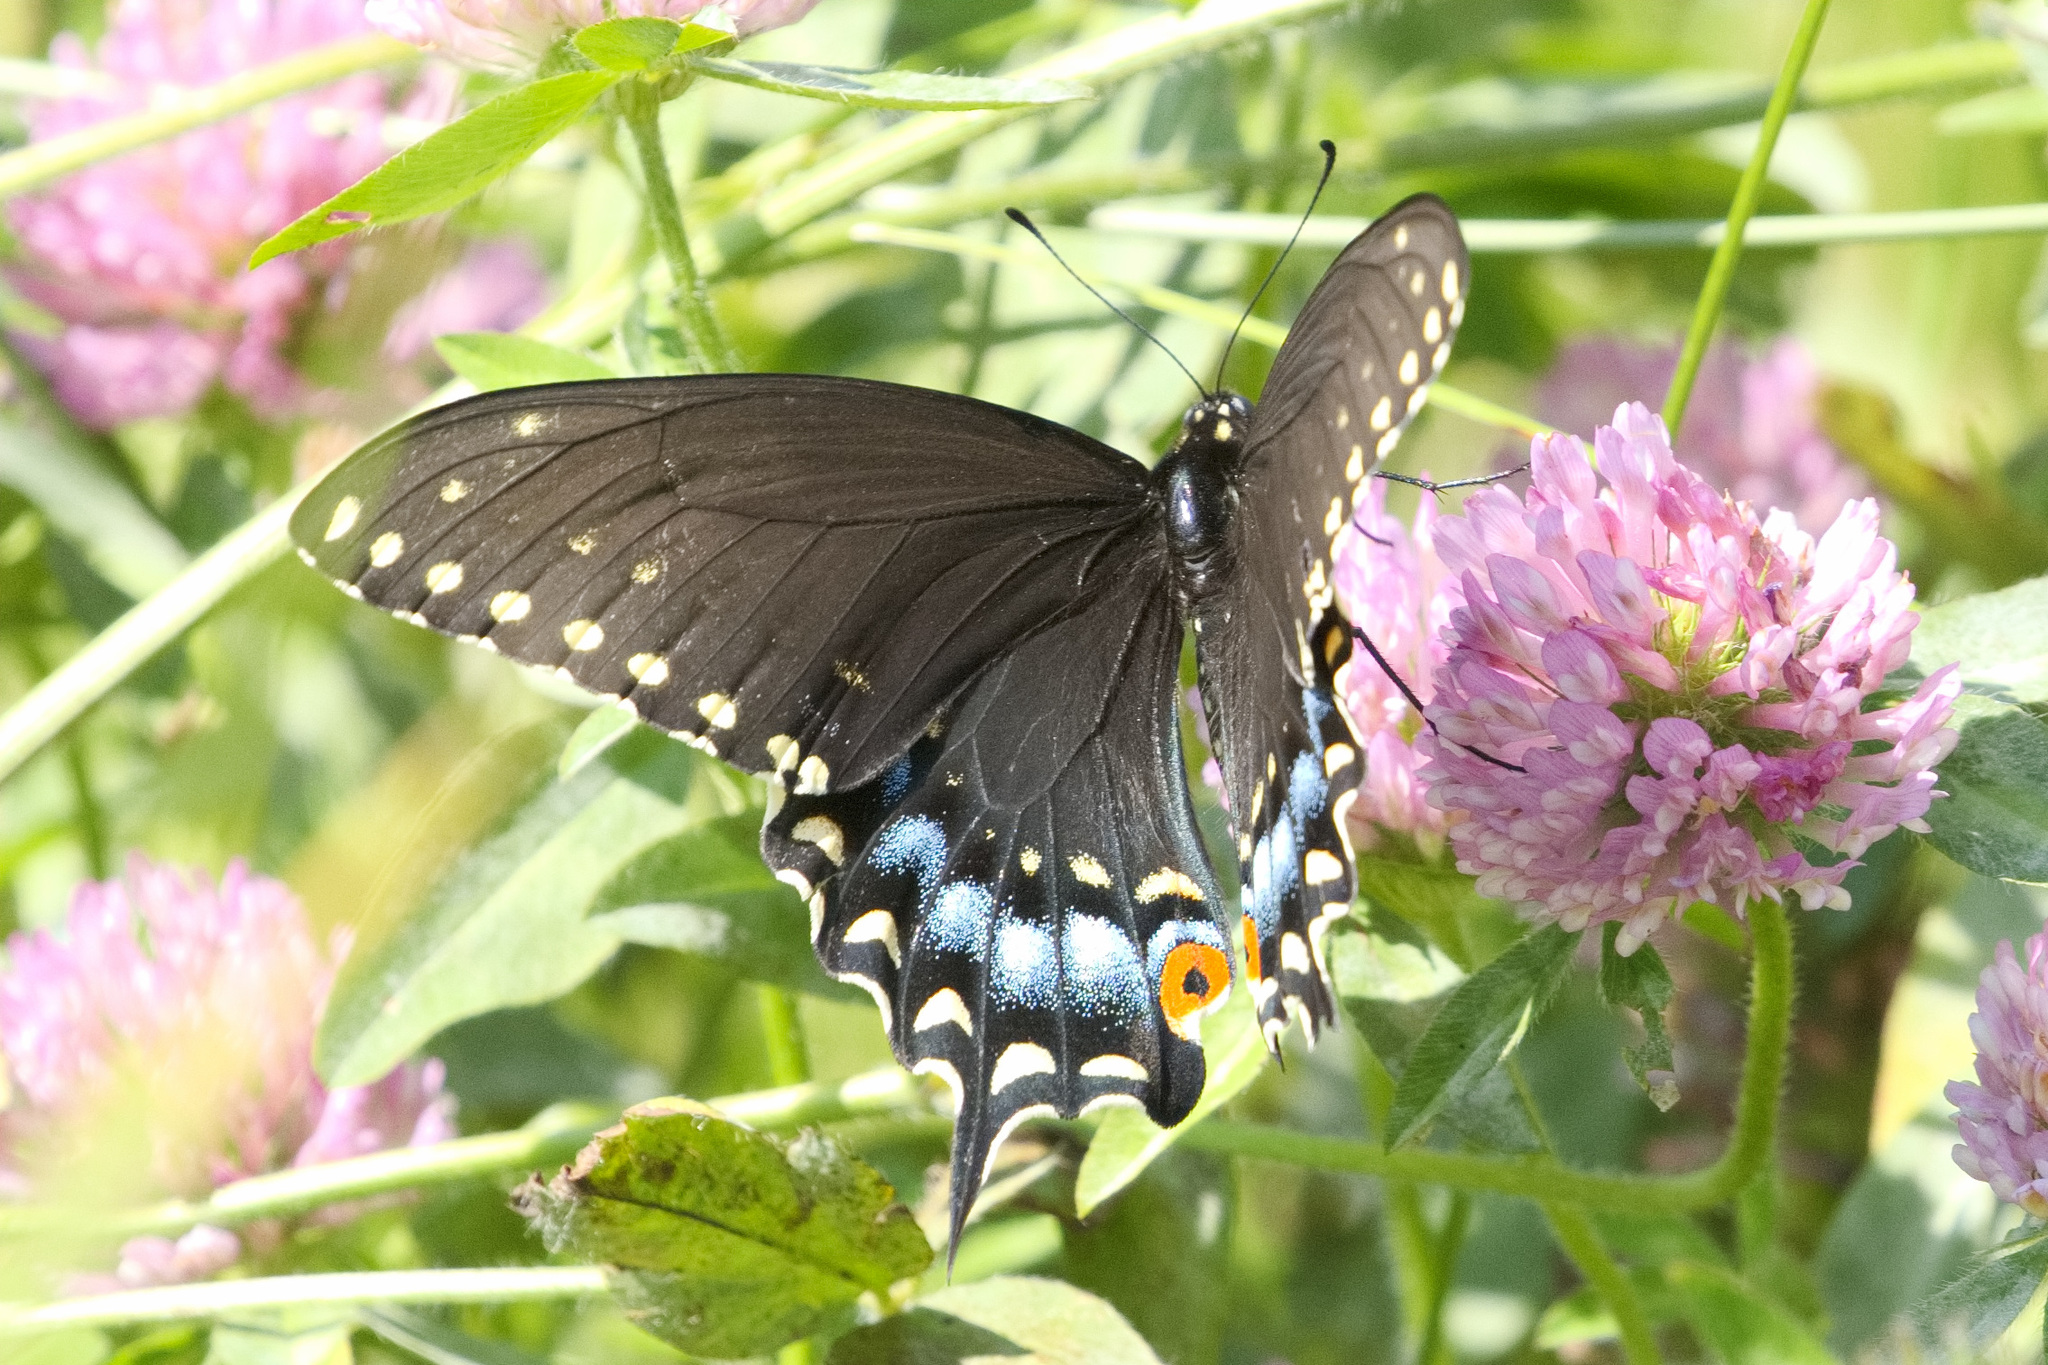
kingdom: Animalia
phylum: Arthropoda
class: Insecta
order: Lepidoptera
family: Papilionidae
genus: Papilio
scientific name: Papilio polyxenes
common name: Black swallowtail
